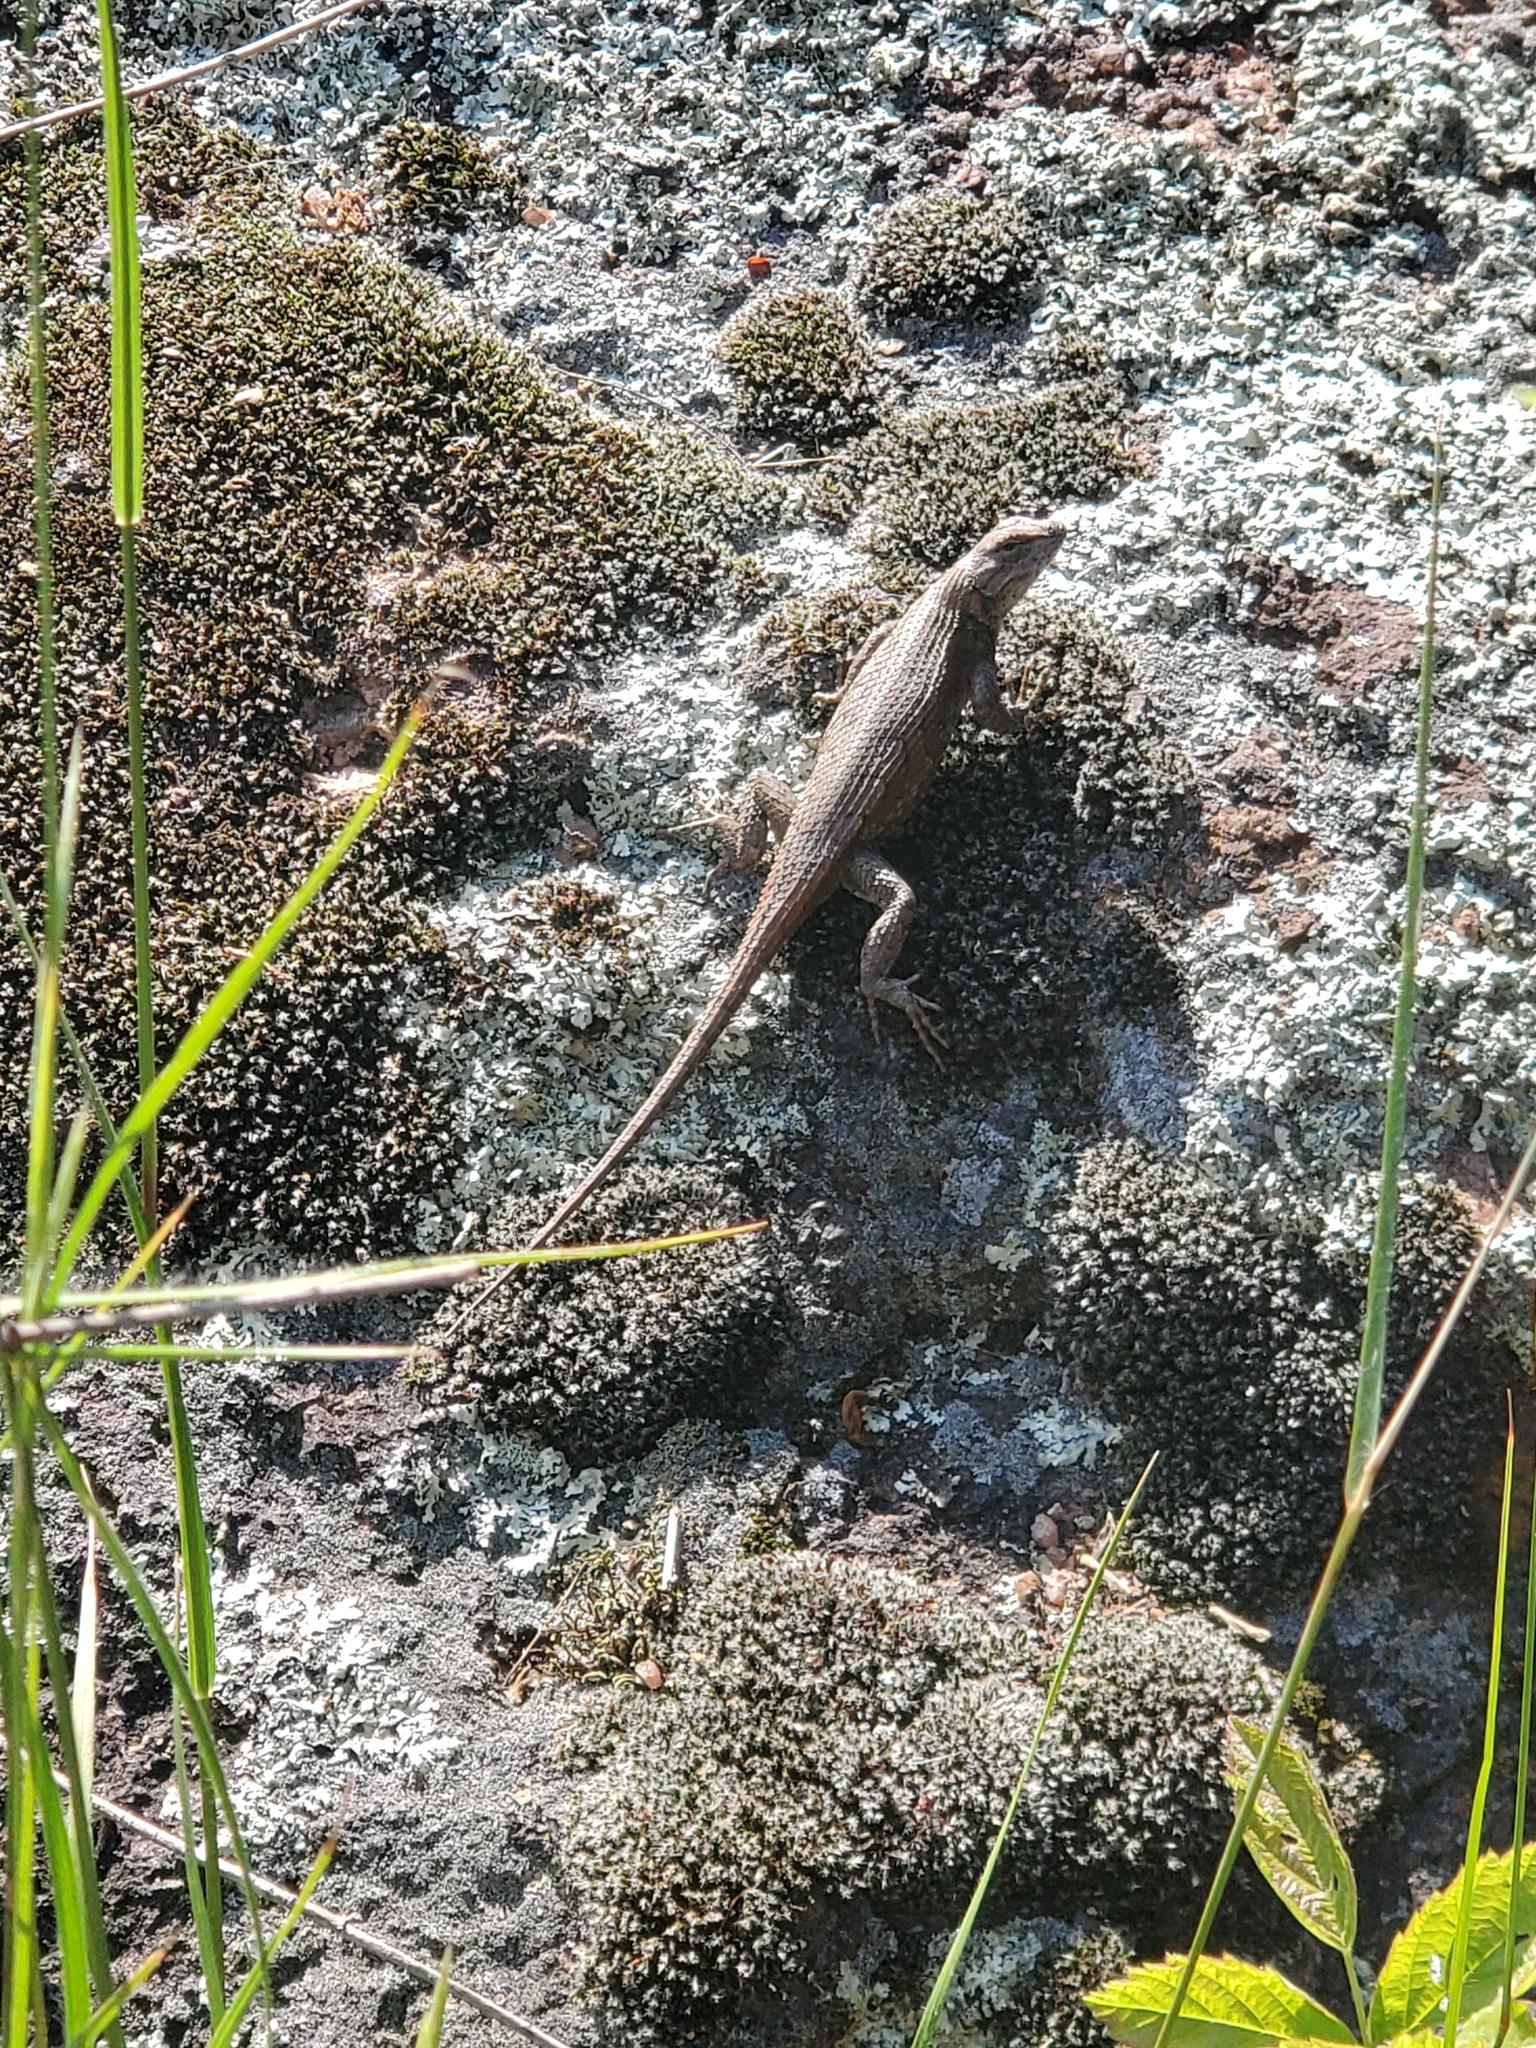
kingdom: Animalia
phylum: Chordata
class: Squamata
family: Phrynosomatidae
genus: Sceloporus
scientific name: Sceloporus consobrinus
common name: Southern prairie lizard
